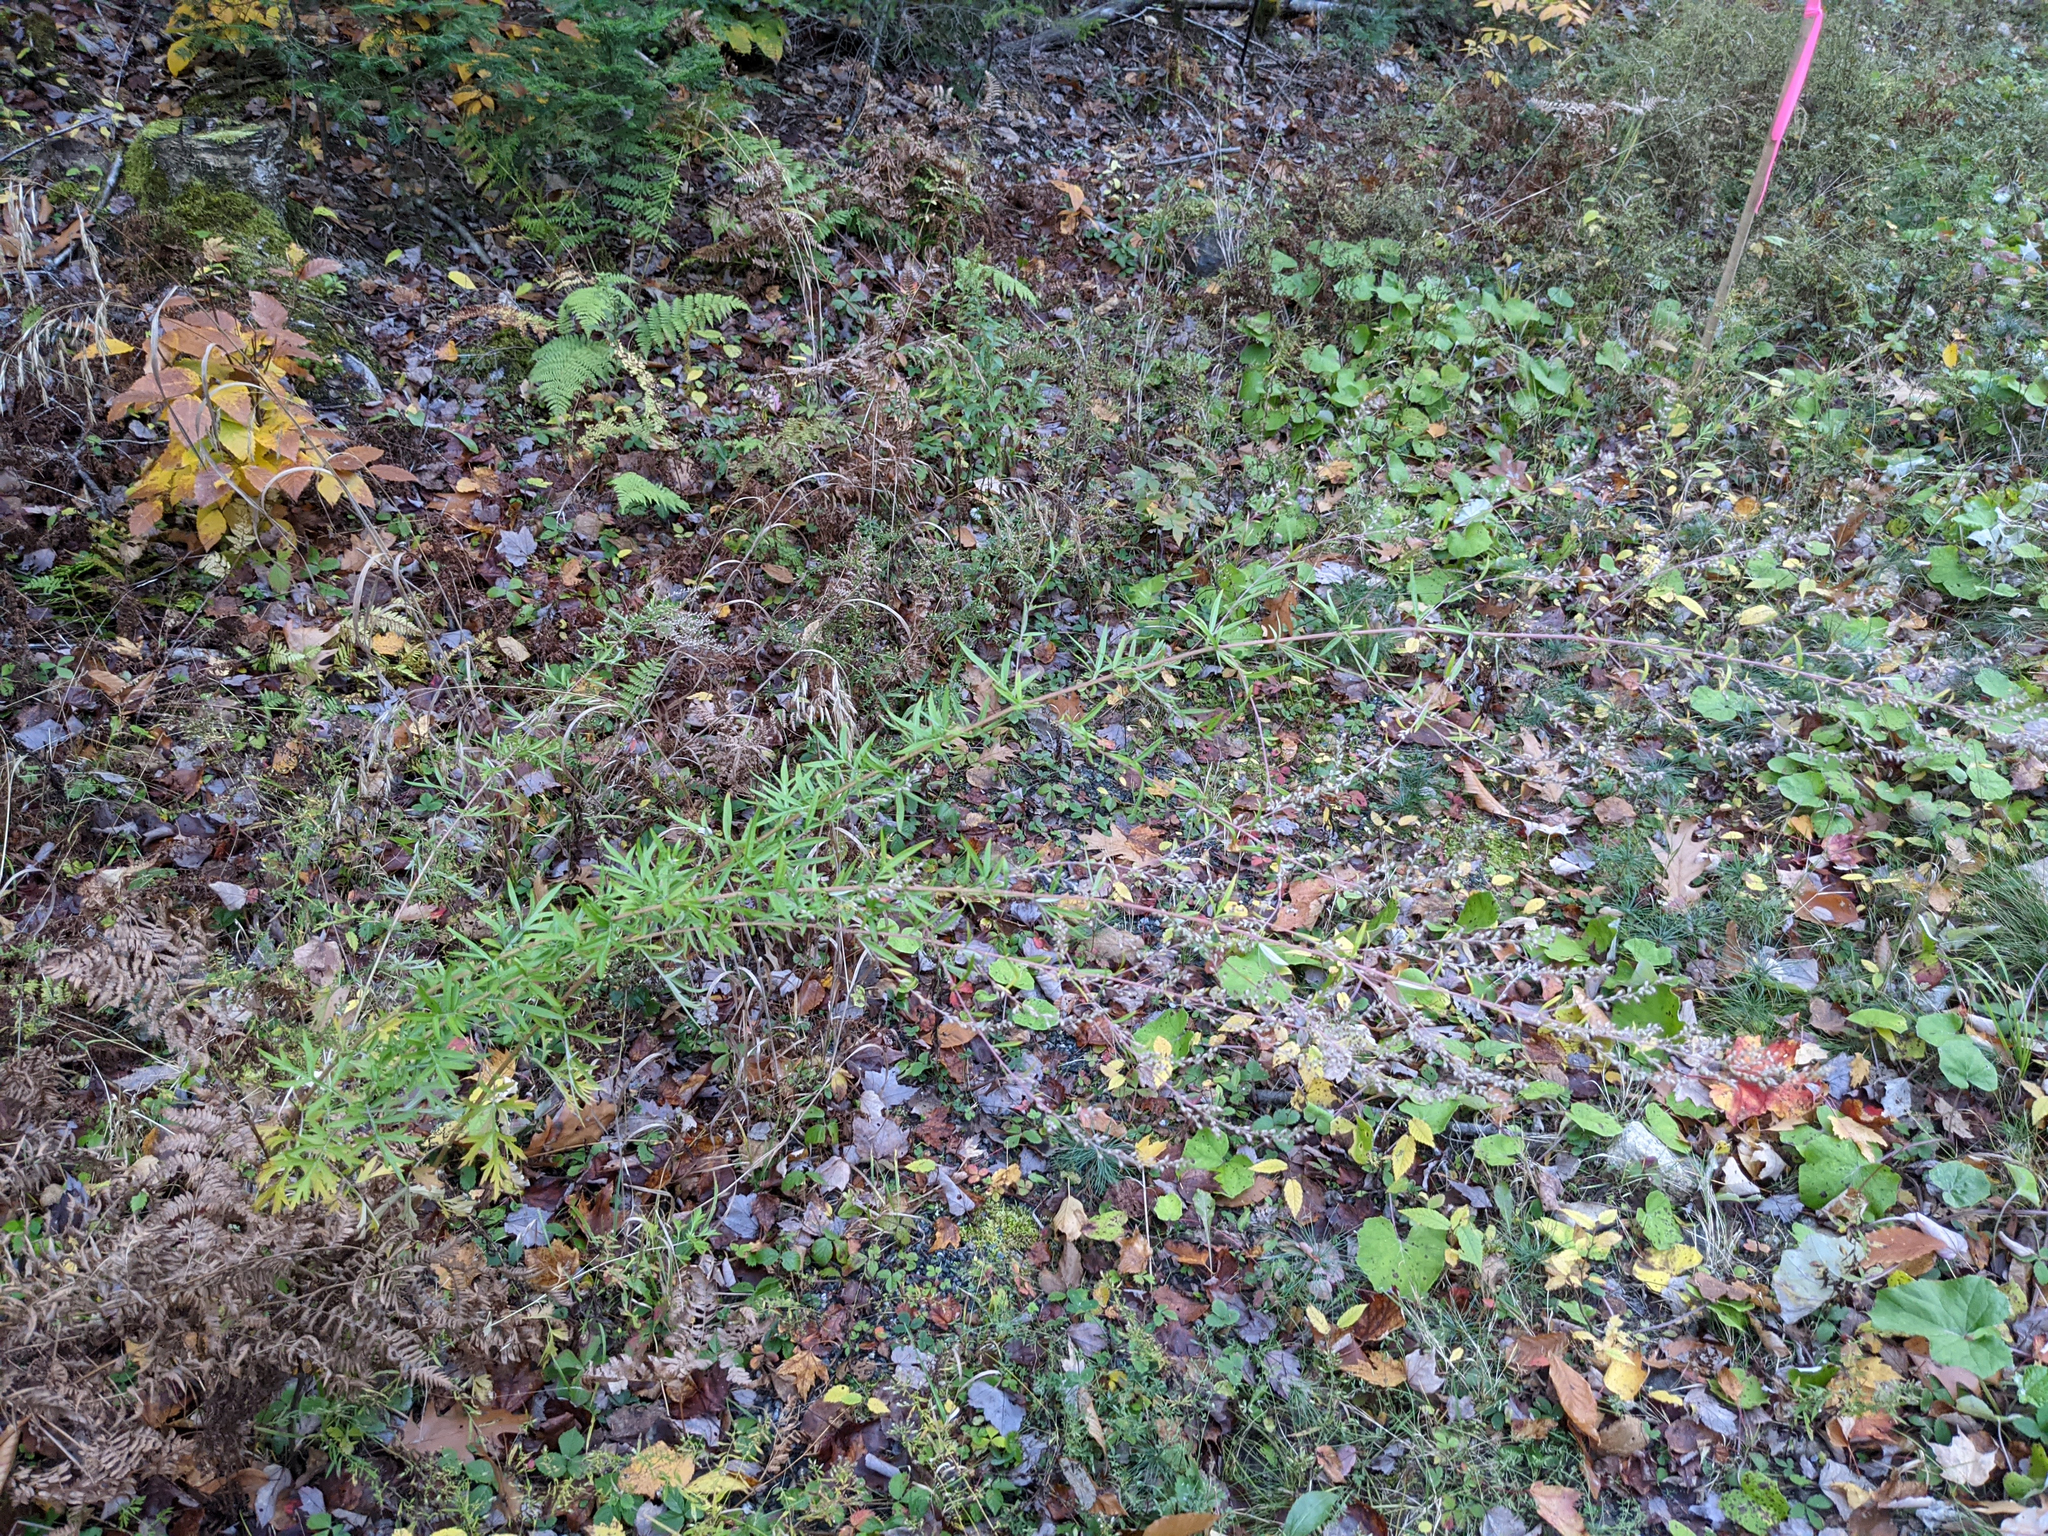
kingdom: Plantae
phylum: Tracheophyta
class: Magnoliopsida
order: Asterales
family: Asteraceae
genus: Artemisia
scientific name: Artemisia vulgaris
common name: Mugwort
